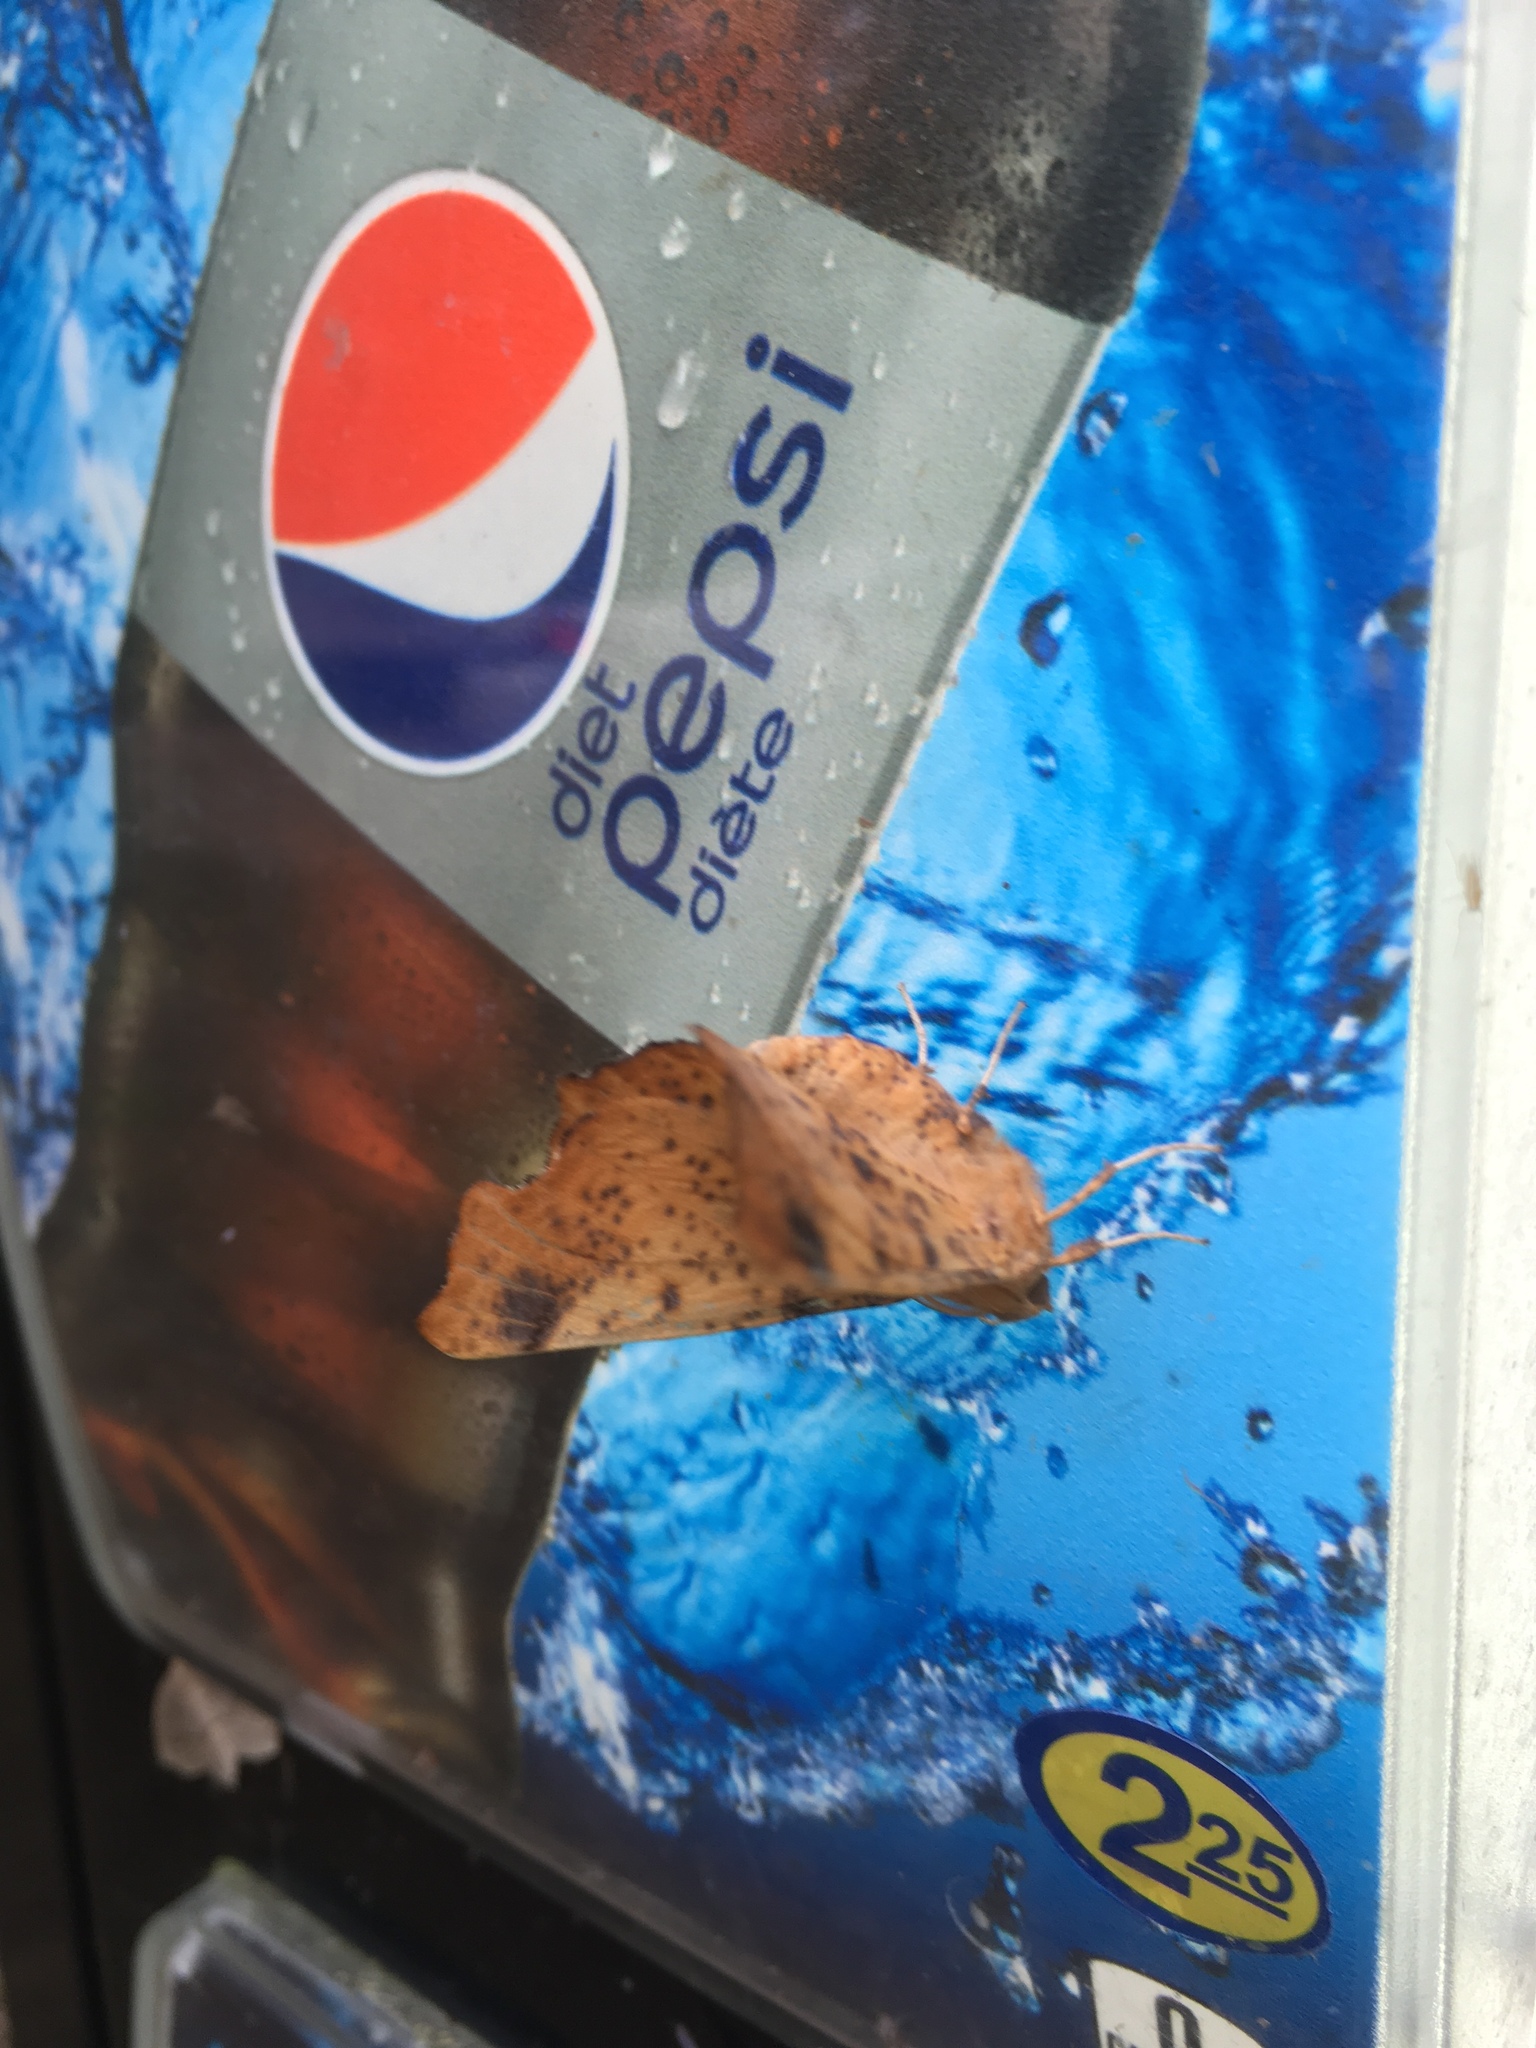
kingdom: Animalia
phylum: Arthropoda
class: Insecta
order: Lepidoptera
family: Geometridae
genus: Ennomos
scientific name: Ennomos magnaria
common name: Maple spanworm
